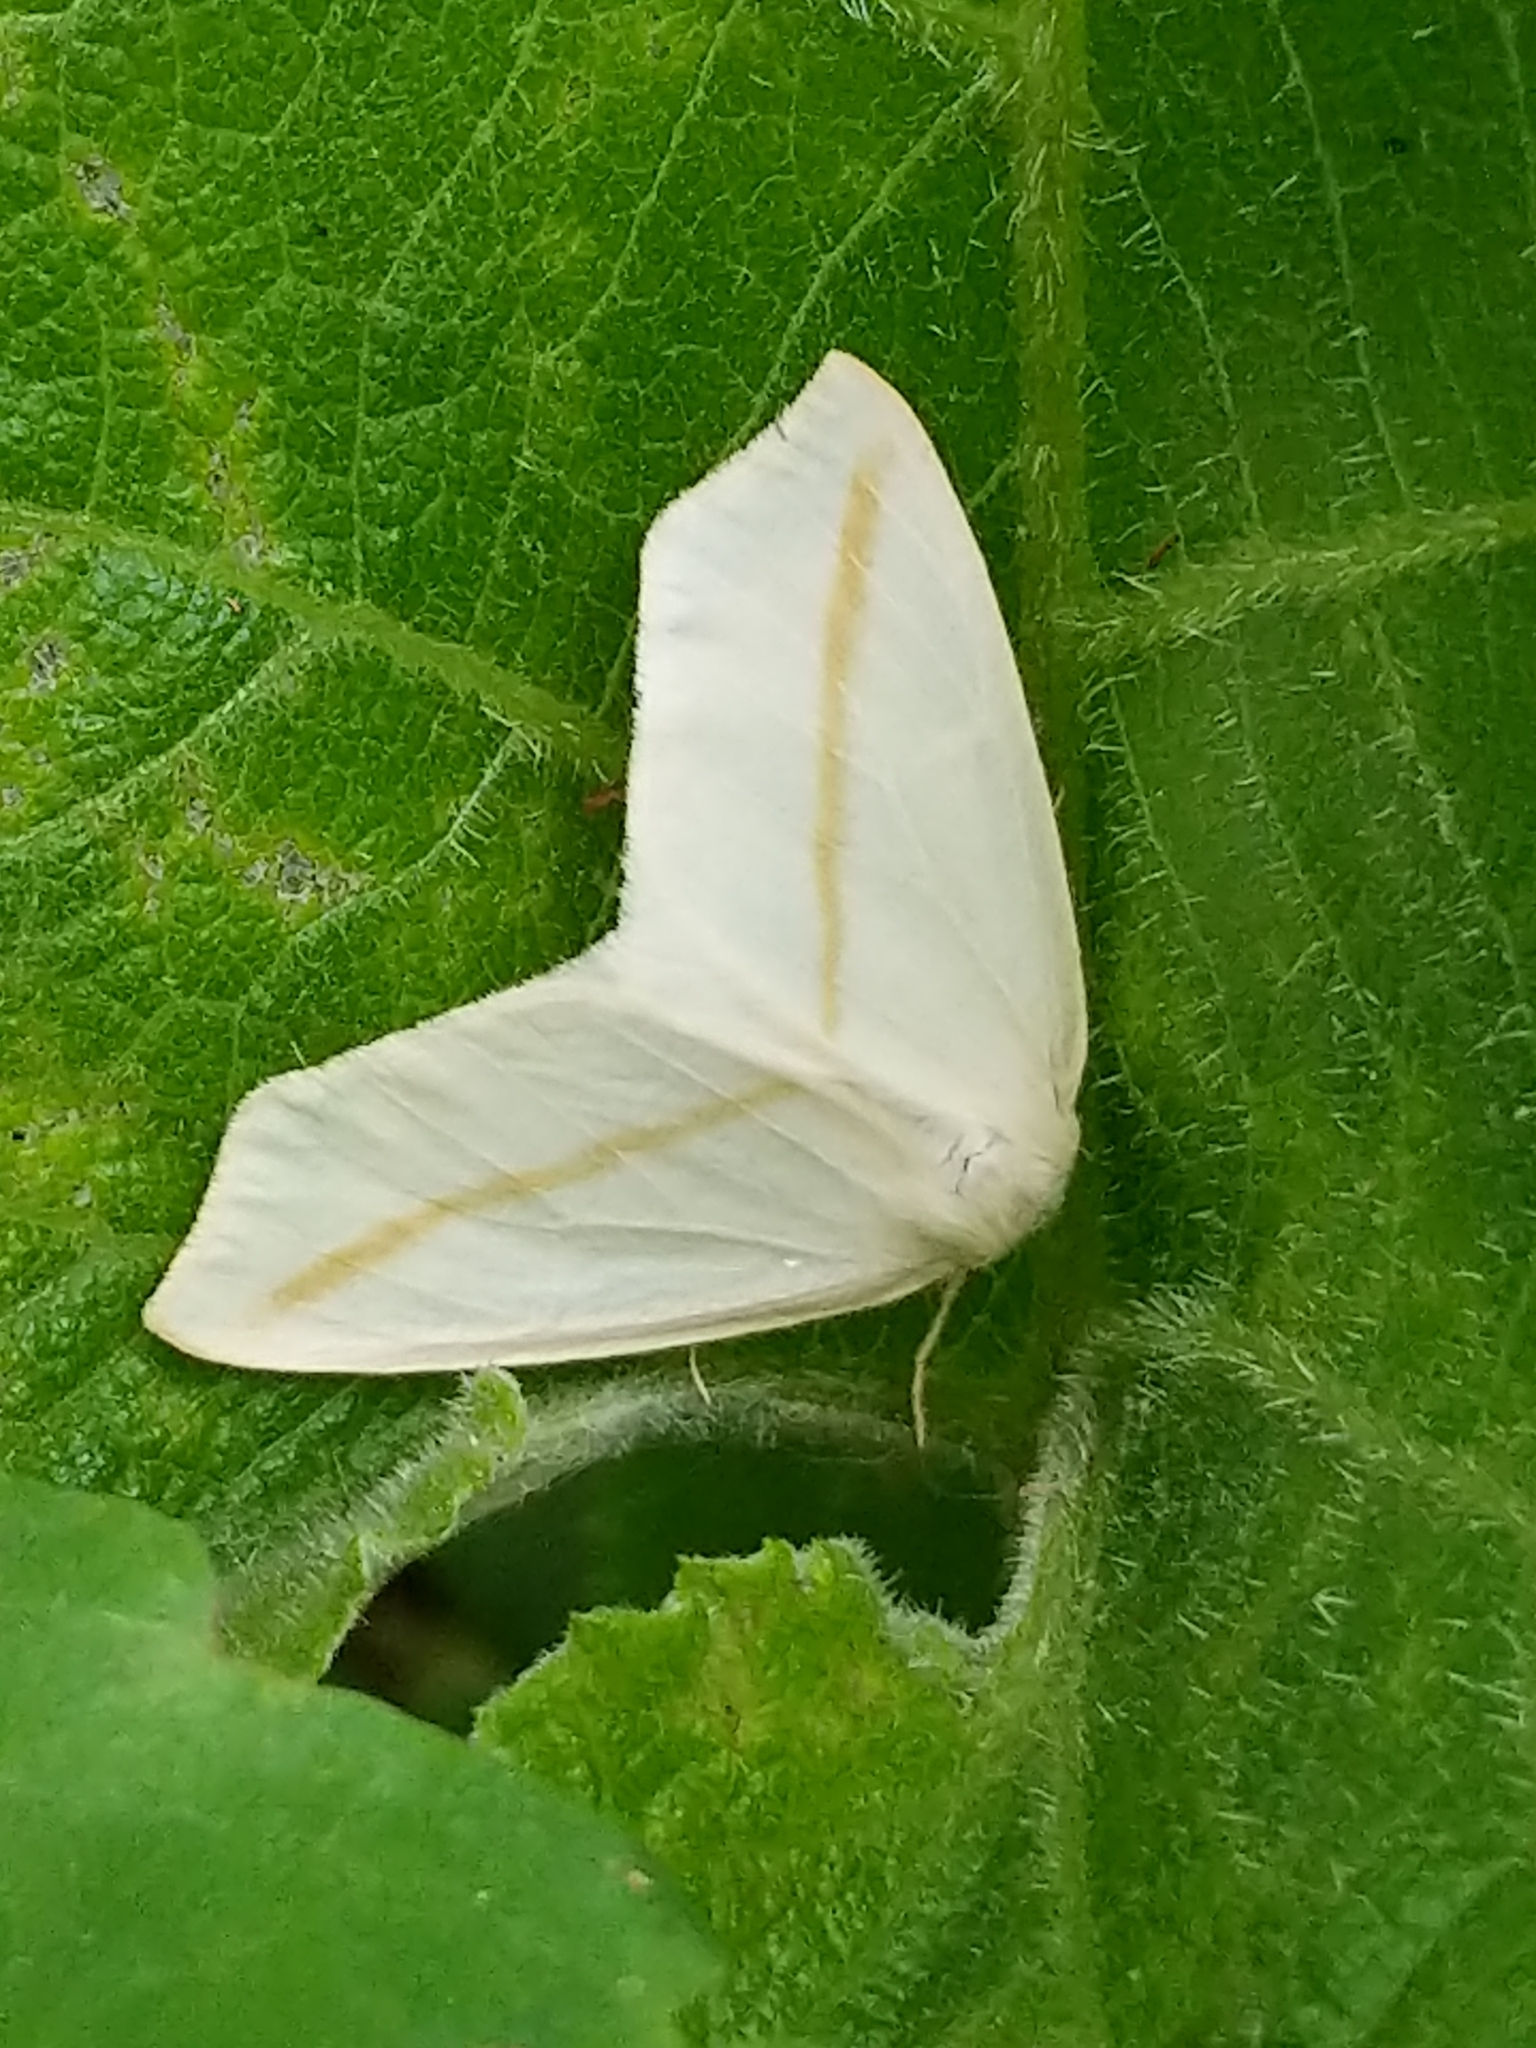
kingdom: Animalia
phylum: Arthropoda
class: Insecta
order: Lepidoptera
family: Geometridae
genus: Tetracis
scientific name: Tetracis cachexiata
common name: White slant-line
